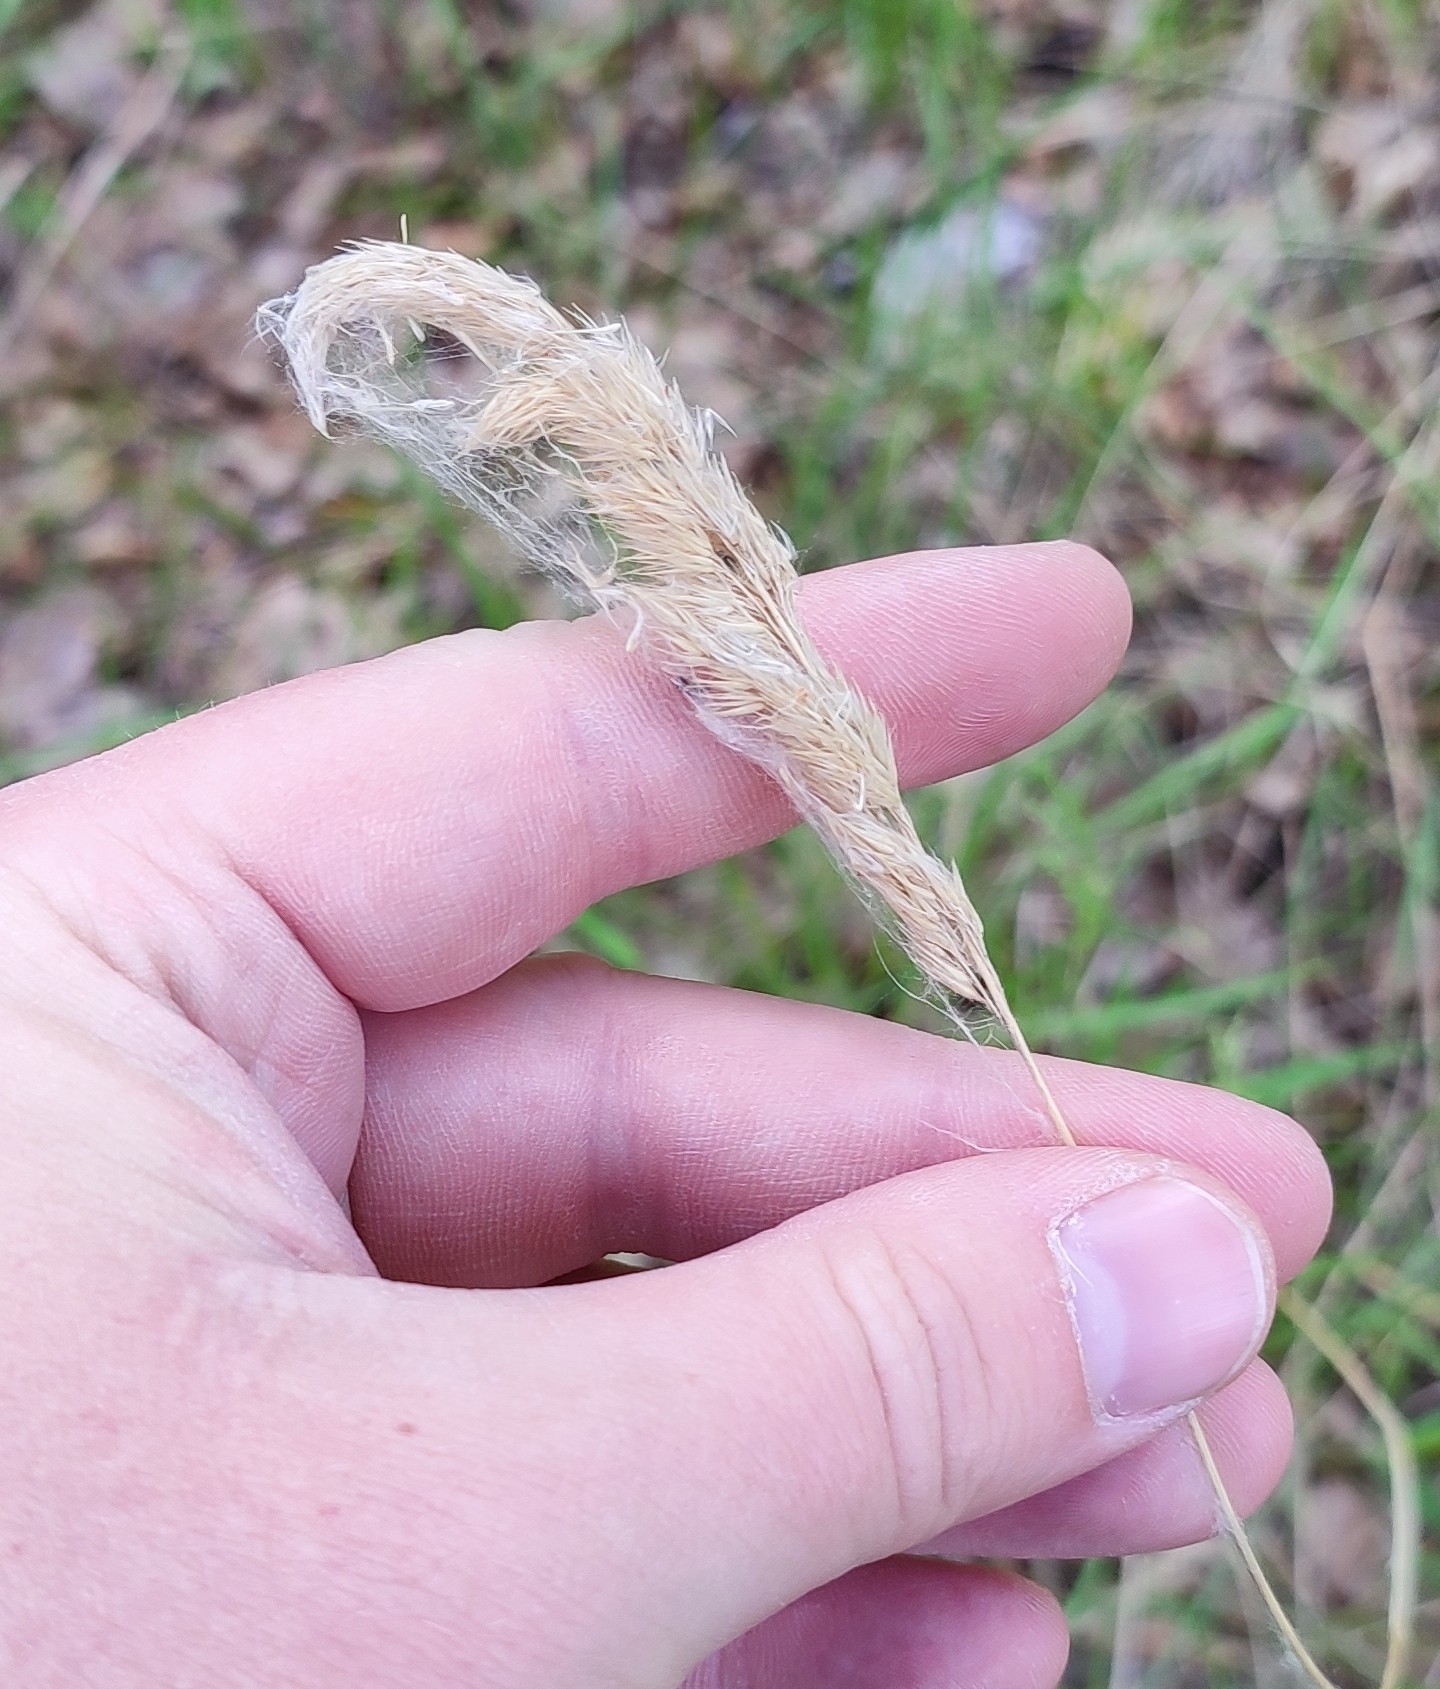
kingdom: Plantae
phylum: Tracheophyta
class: Liliopsida
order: Poales
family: Poaceae
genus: Calamagrostis
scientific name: Calamagrostis arundinacea
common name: Metskastik
